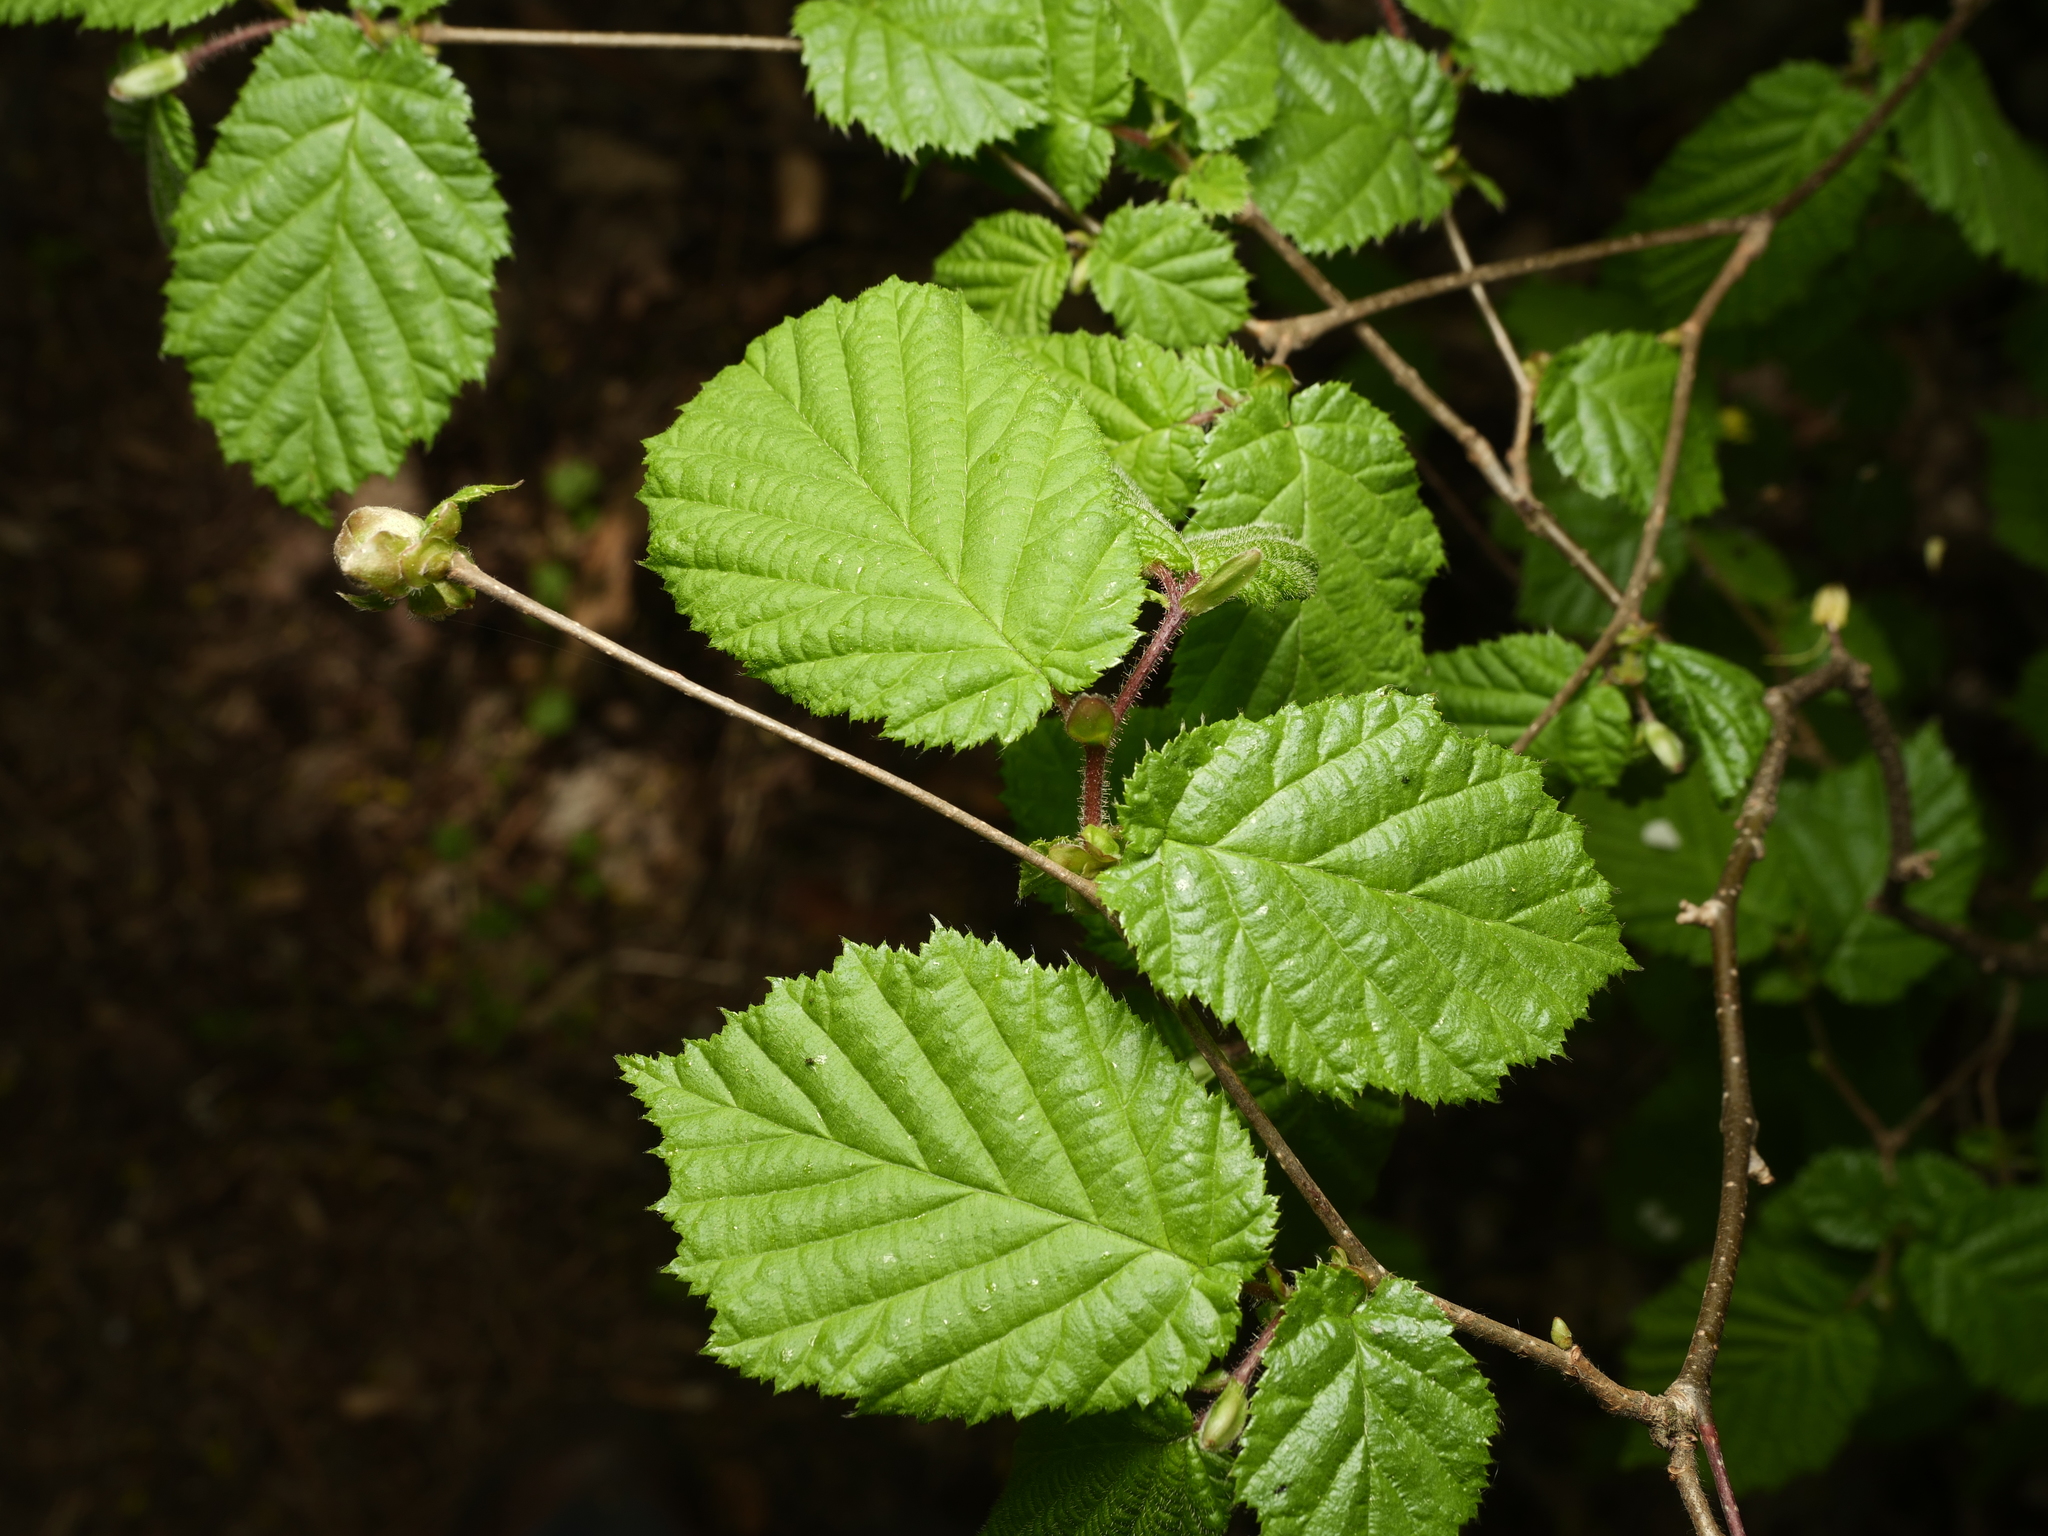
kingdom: Plantae
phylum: Tracheophyta
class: Magnoliopsida
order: Fagales
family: Betulaceae
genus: Corylus
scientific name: Corylus avellana
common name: European hazel
